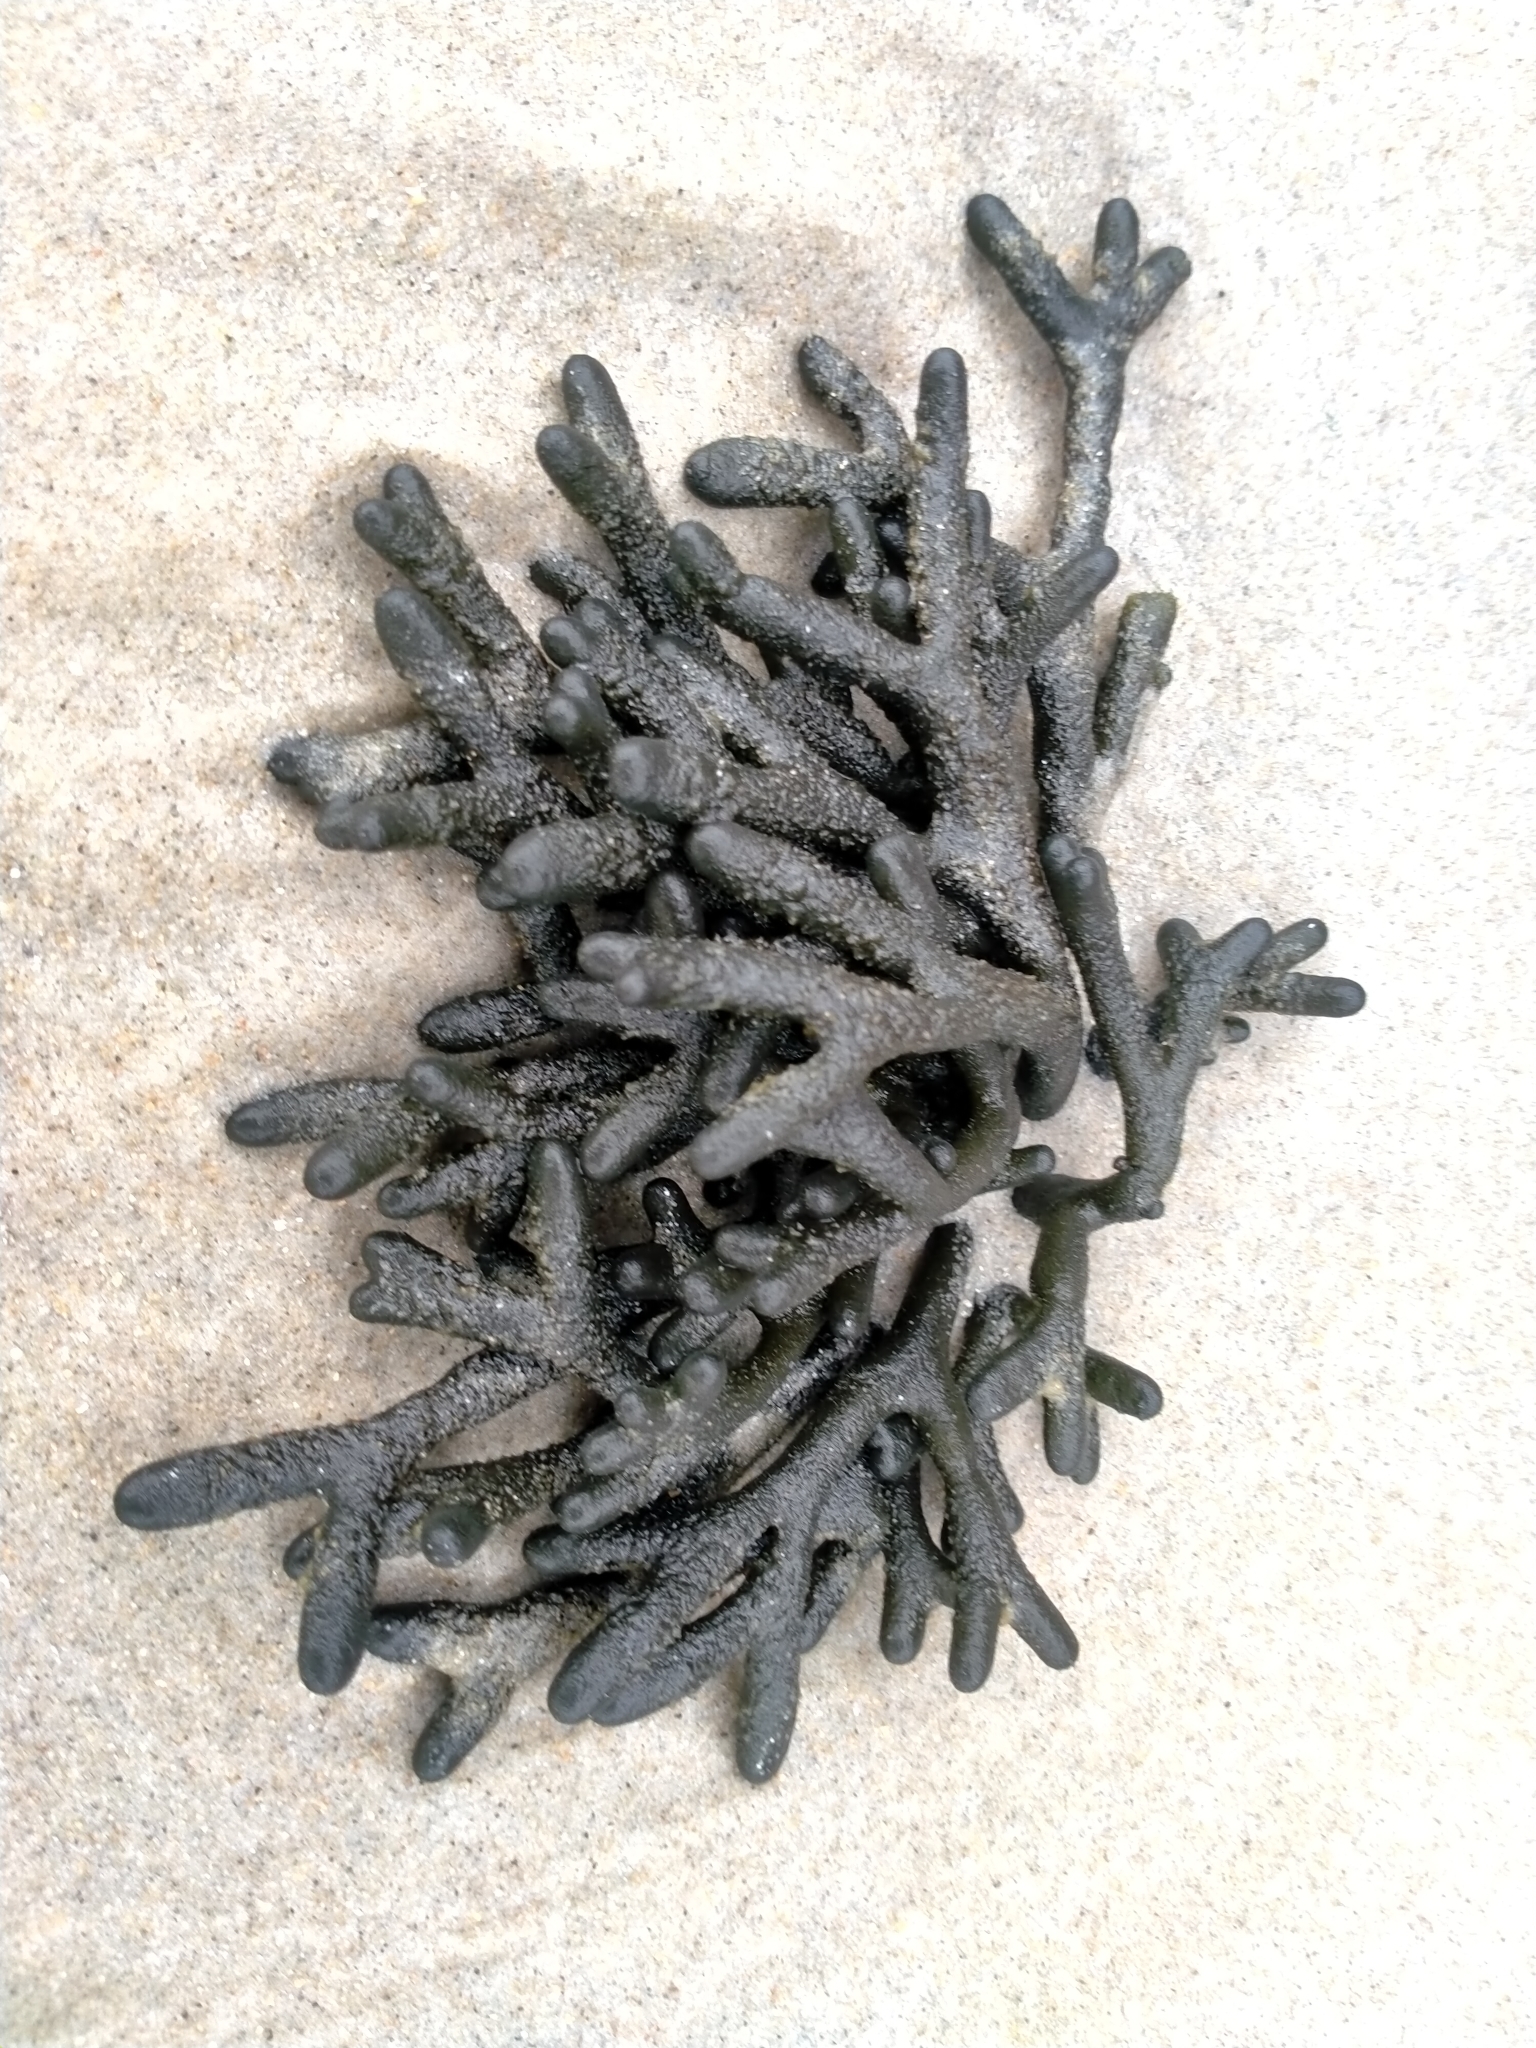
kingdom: Plantae
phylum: Chlorophyta
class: Ulvophyceae
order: Bryopsidales
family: Codiaceae
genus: Codium
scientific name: Codium fragile
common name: Dead man's fingers
